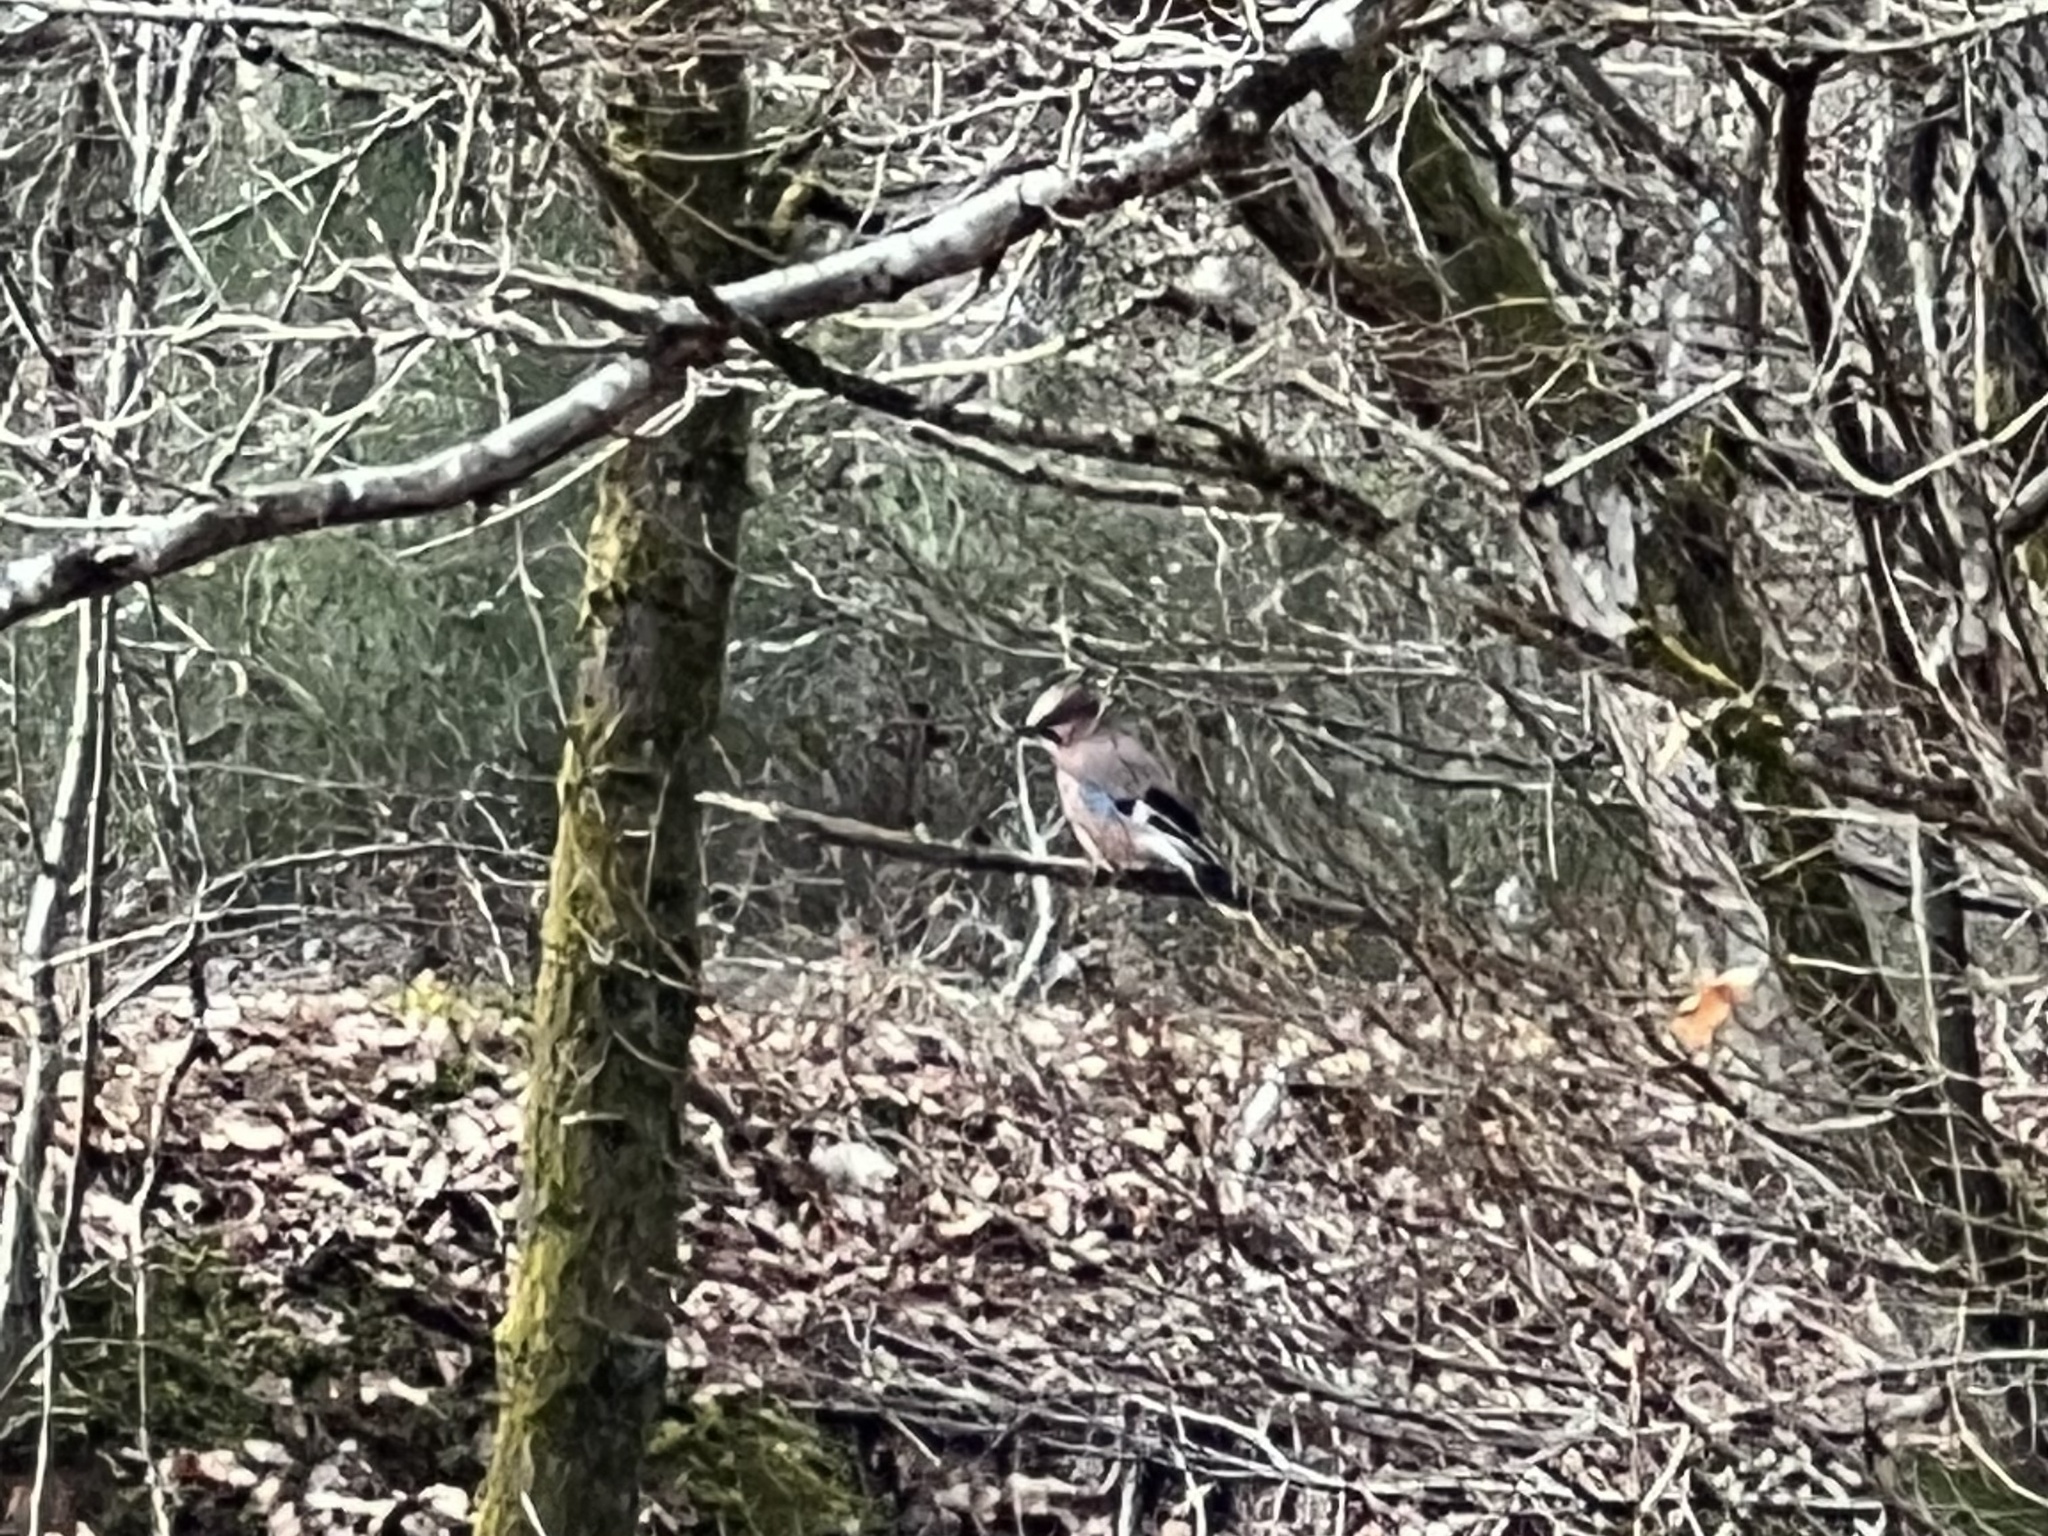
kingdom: Animalia
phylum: Chordata
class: Aves
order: Passeriformes
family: Corvidae
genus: Garrulus
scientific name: Garrulus glandarius
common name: Eurasian jay
